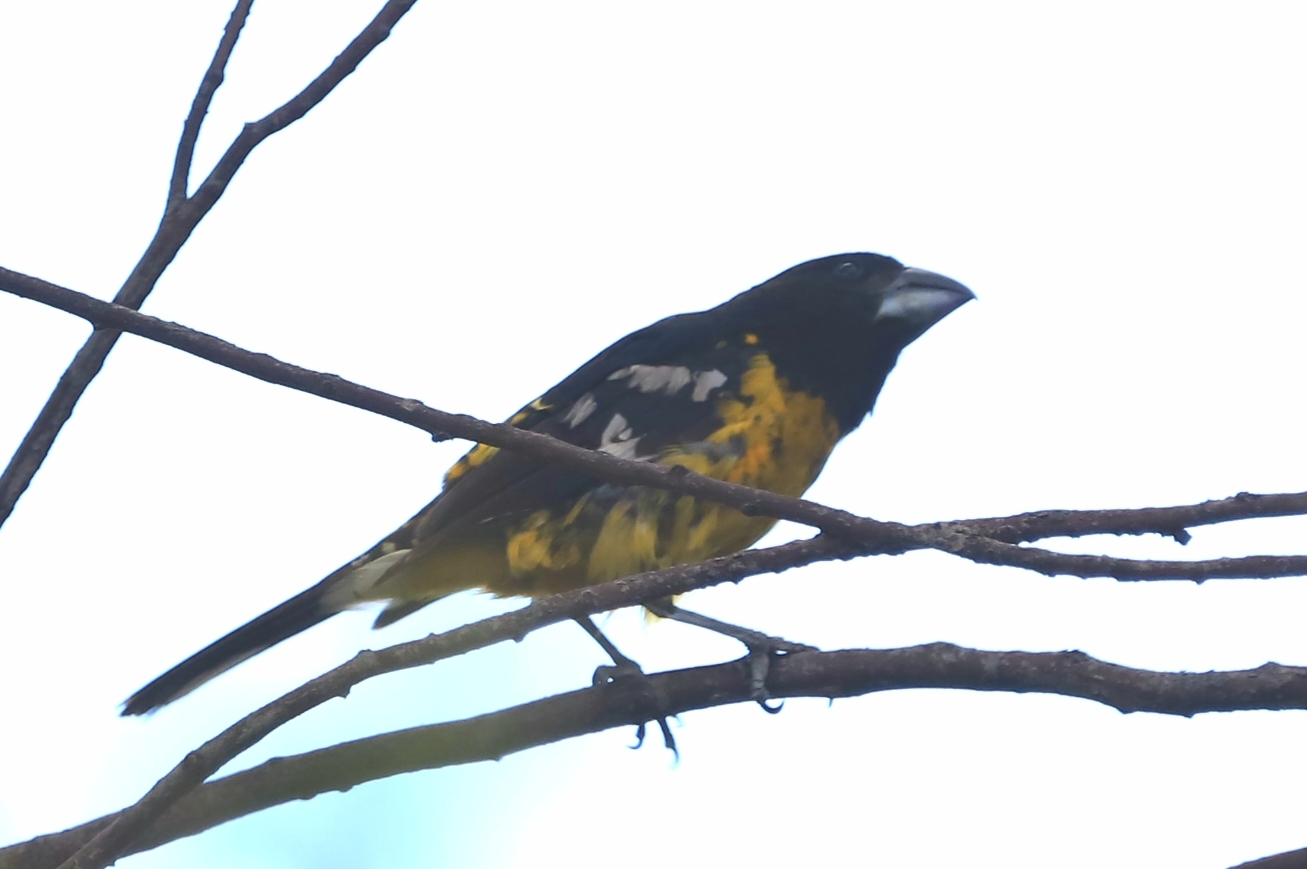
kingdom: Animalia
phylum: Chordata
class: Aves
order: Passeriformes
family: Cardinalidae
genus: Pheucticus
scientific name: Pheucticus aureoventris
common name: Black-backed grosbeak
